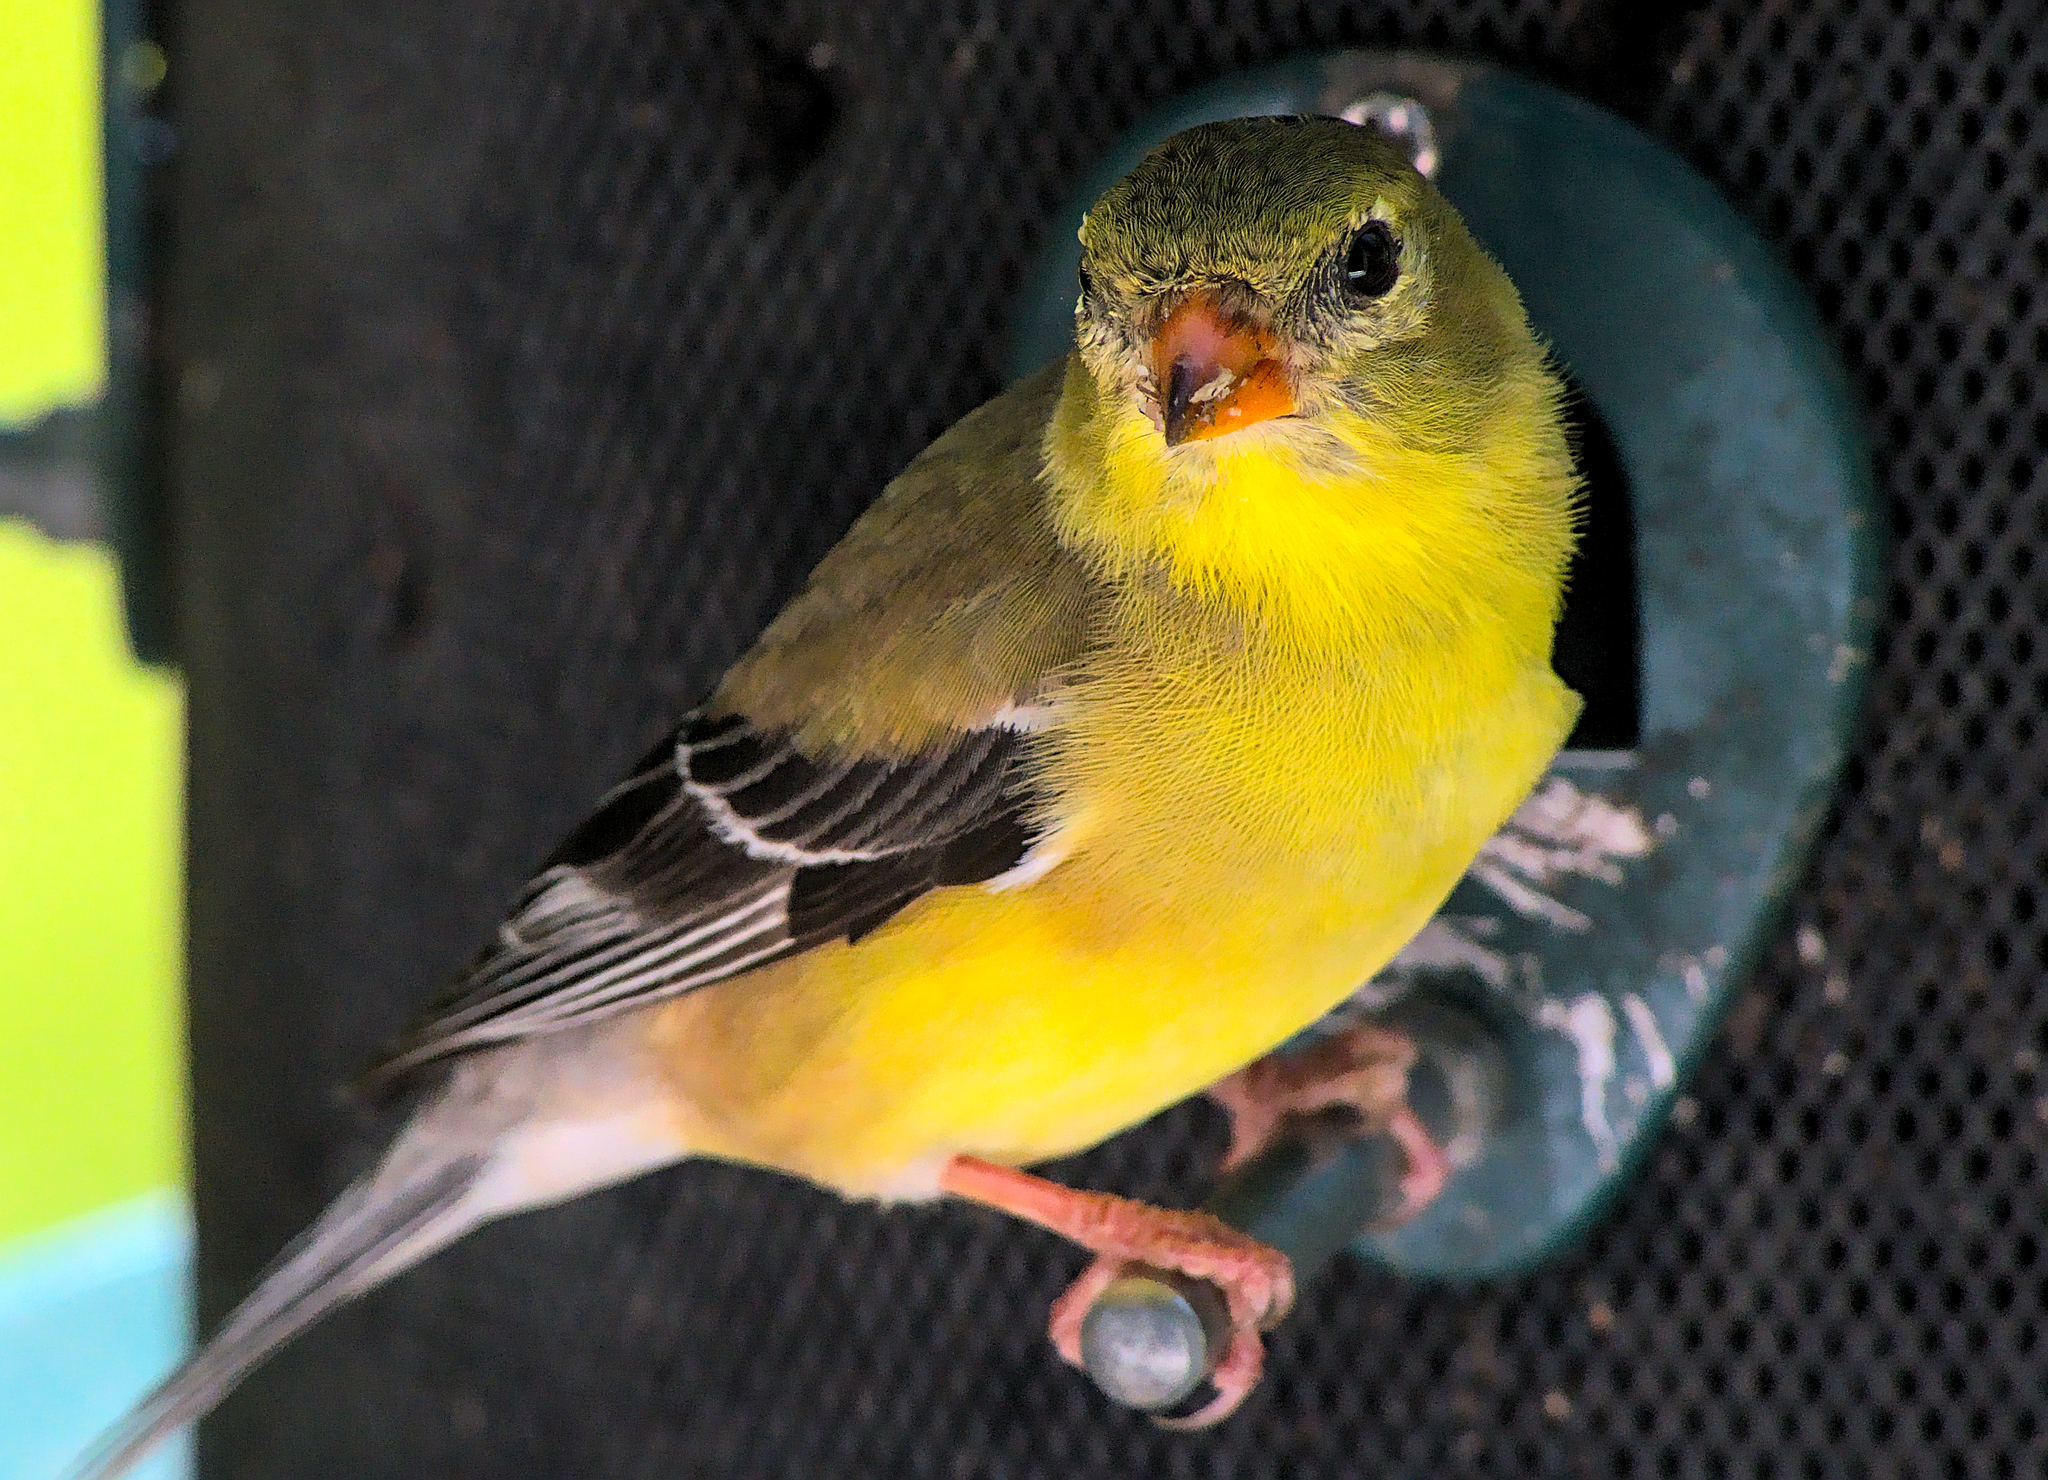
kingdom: Animalia
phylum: Chordata
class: Aves
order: Passeriformes
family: Fringillidae
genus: Spinus
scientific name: Spinus tristis
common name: American goldfinch
